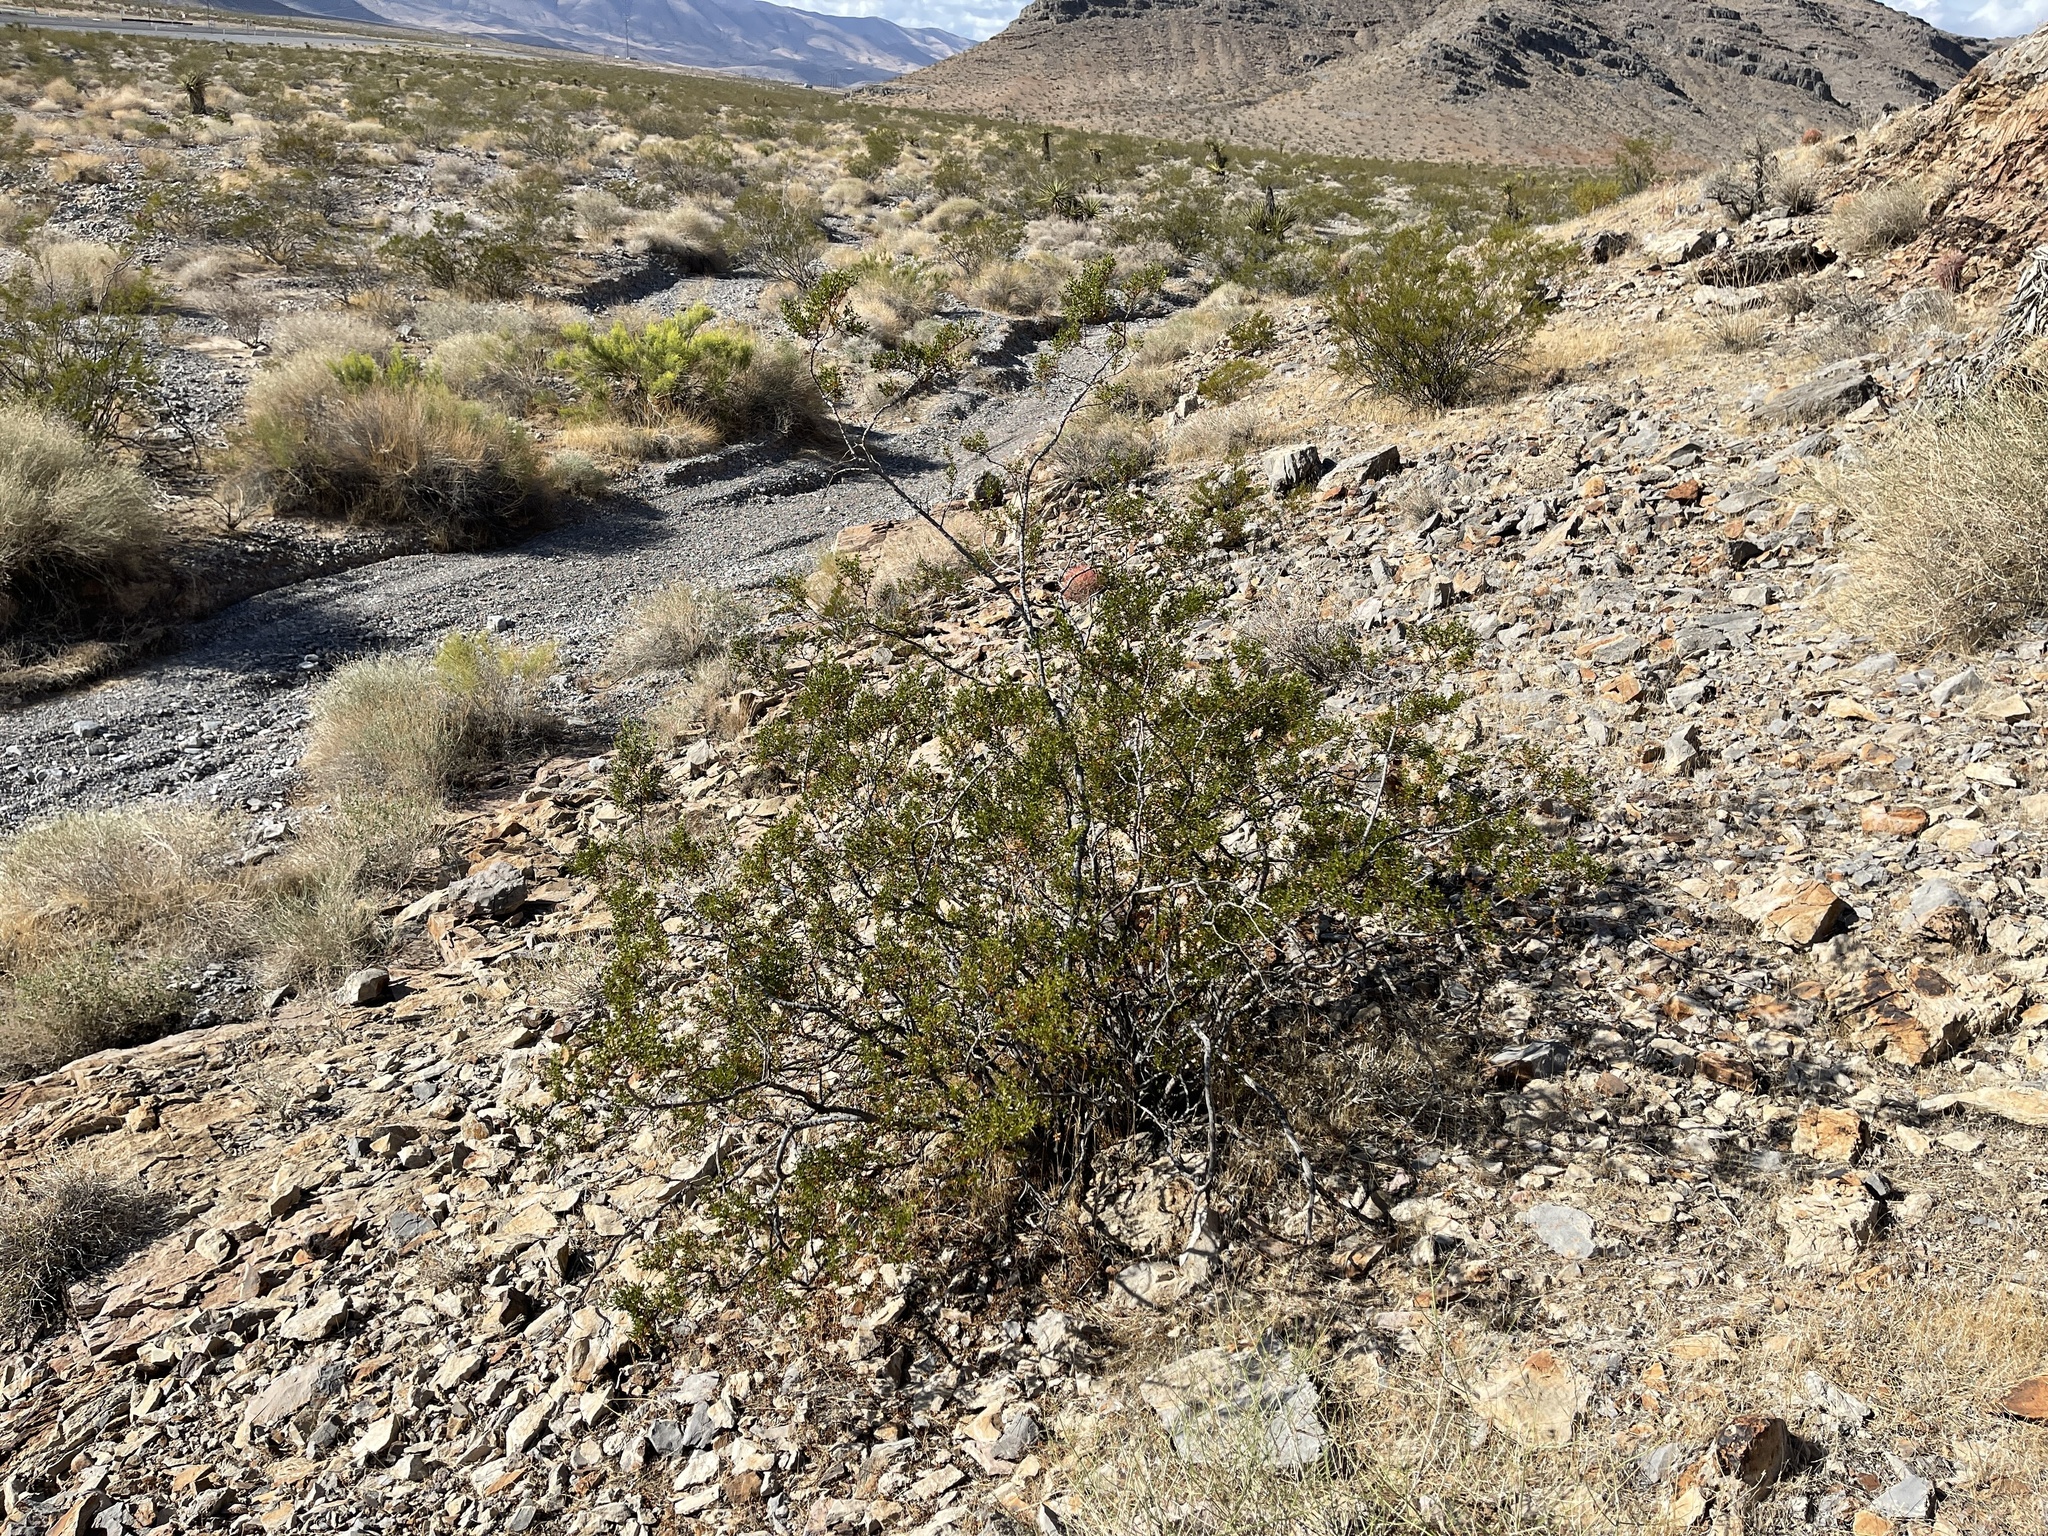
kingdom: Plantae
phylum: Tracheophyta
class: Magnoliopsida
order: Zygophyllales
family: Zygophyllaceae
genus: Larrea
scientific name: Larrea tridentata
